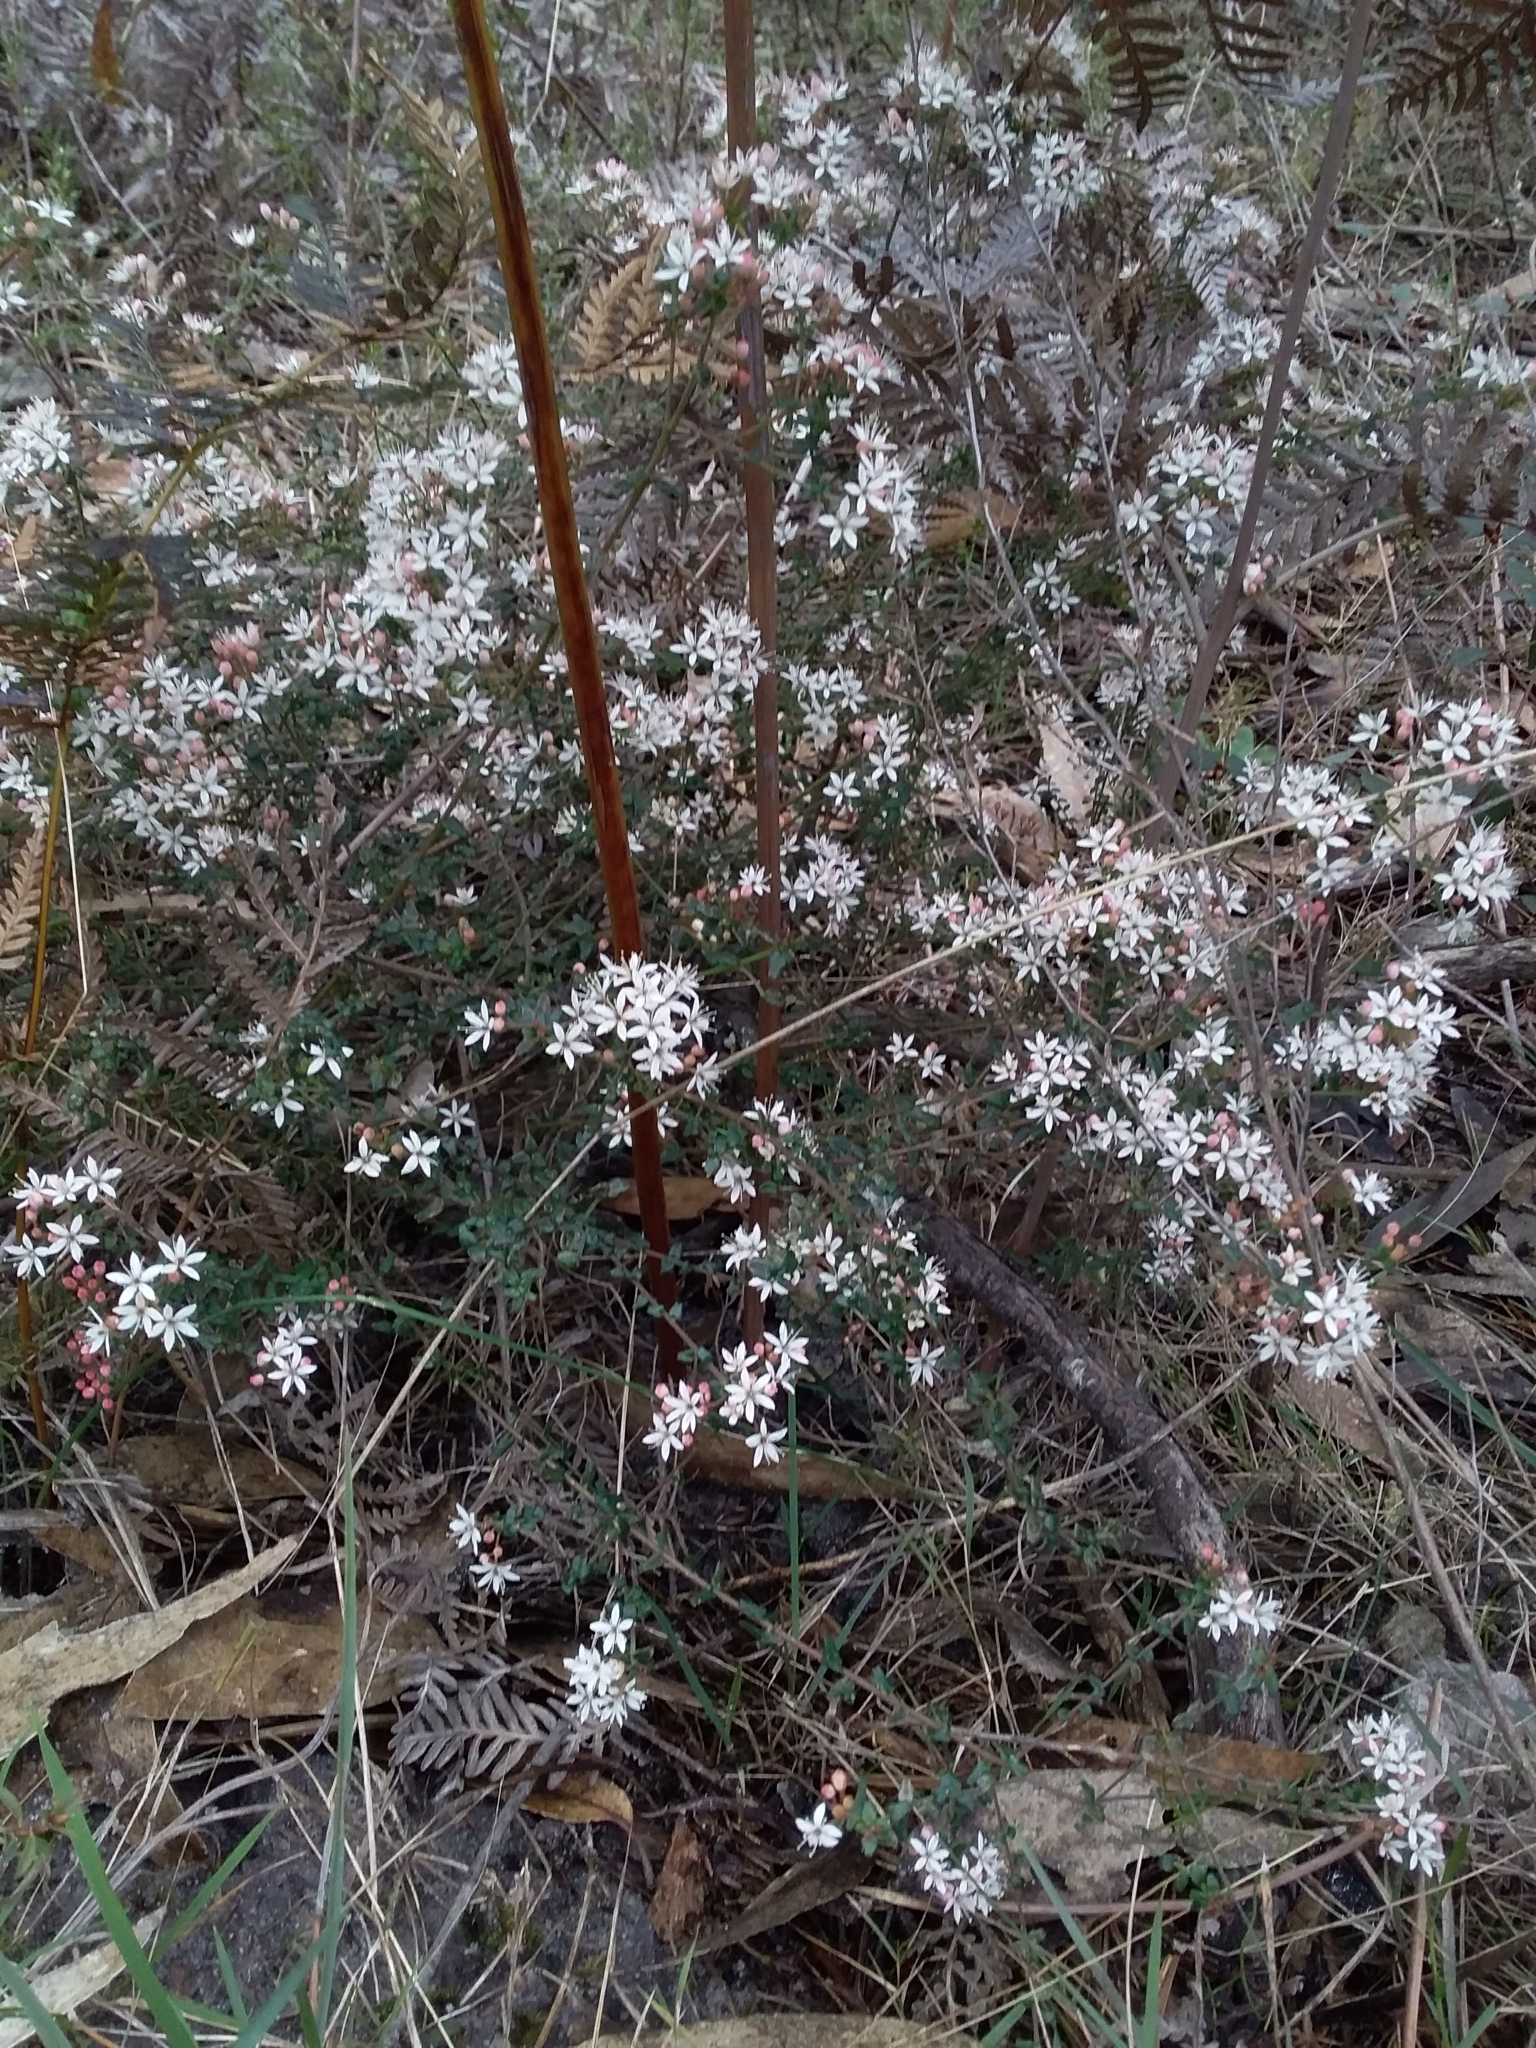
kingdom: Plantae
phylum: Tracheophyta
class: Magnoliopsida
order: Sapindales
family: Rutaceae
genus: Leionema
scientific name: Leionema hillebrandii
